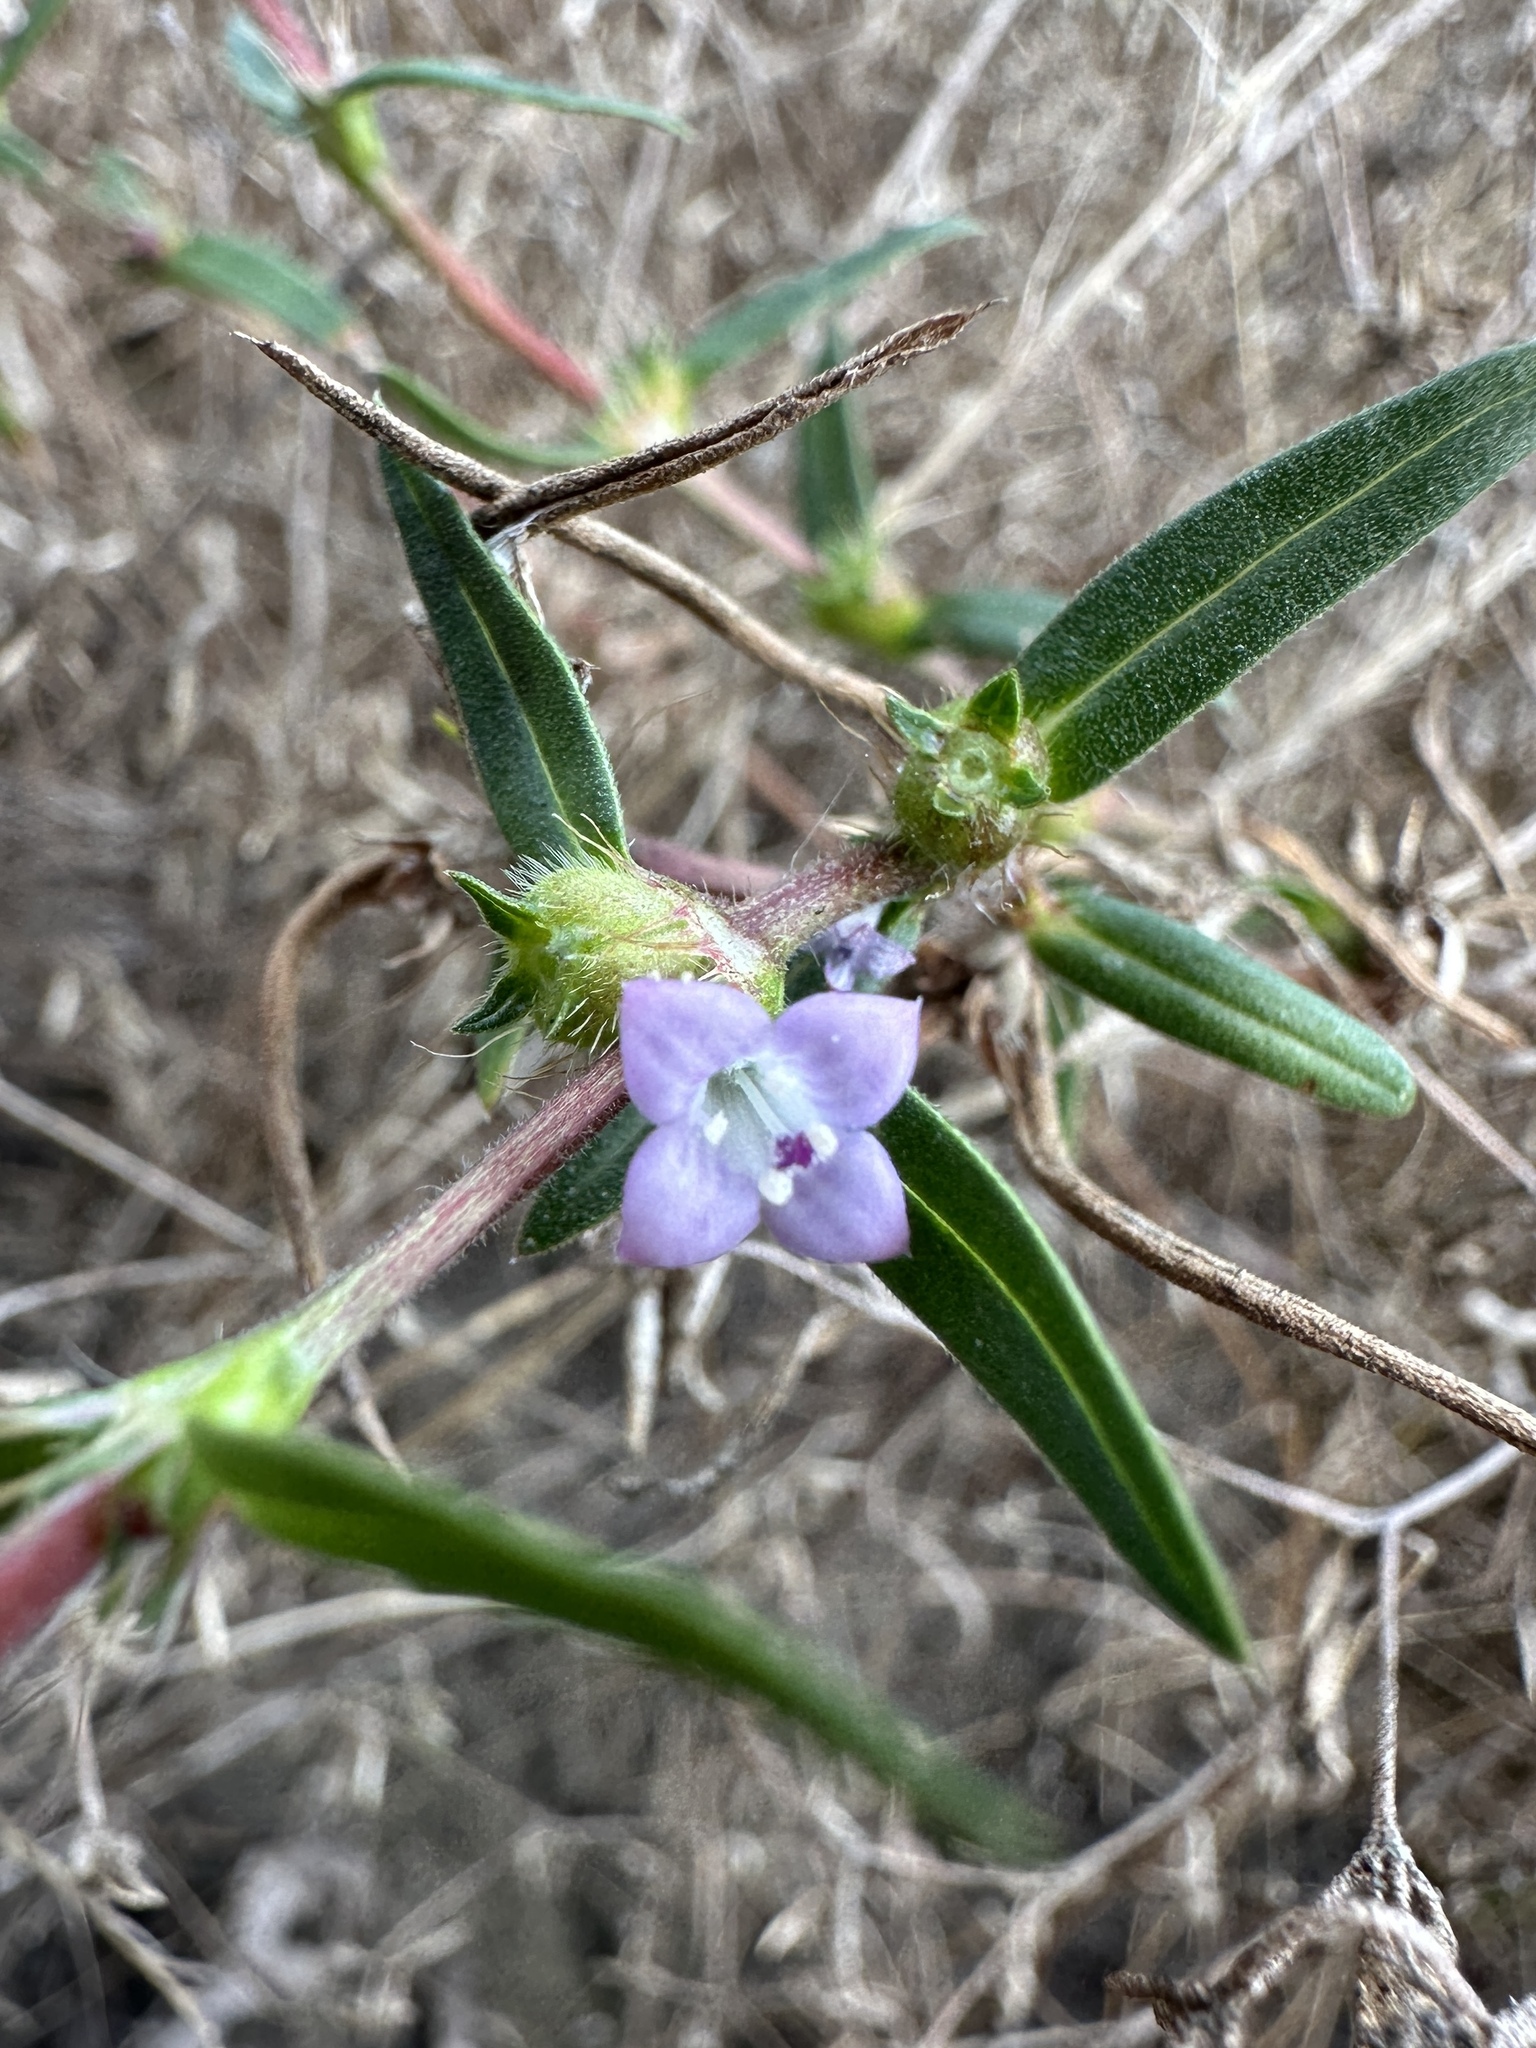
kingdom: Plantae
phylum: Tracheophyta
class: Magnoliopsida
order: Gentianales
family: Rubiaceae
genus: Hexasepalum
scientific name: Hexasepalum teres
